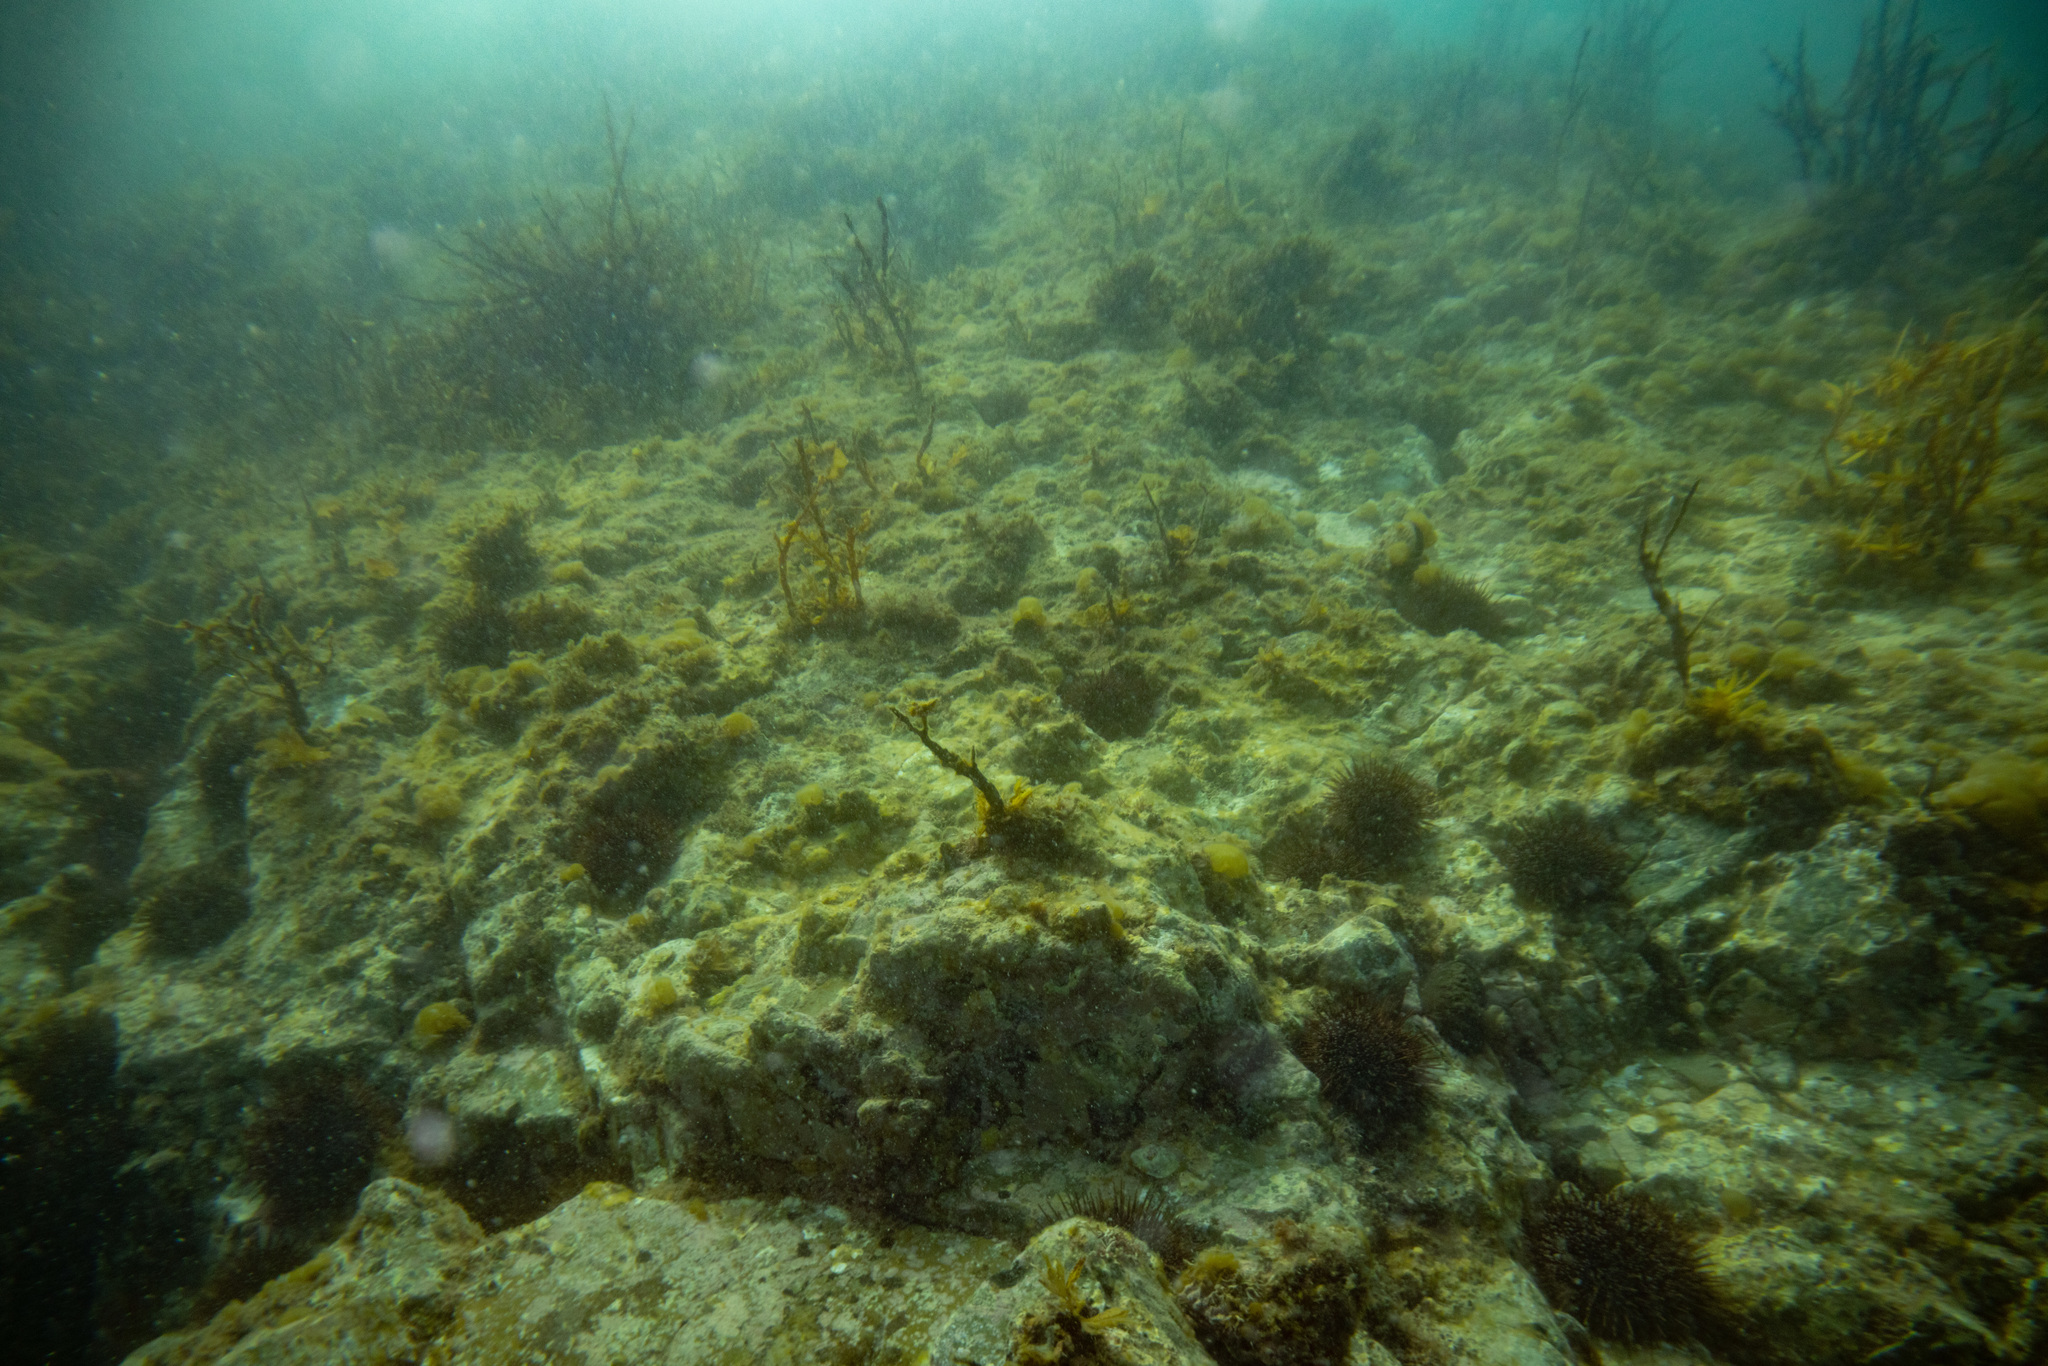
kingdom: Animalia
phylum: Echinodermata
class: Echinoidea
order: Camarodonta
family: Echinometridae
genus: Evechinus
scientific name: Evechinus chloroticus
